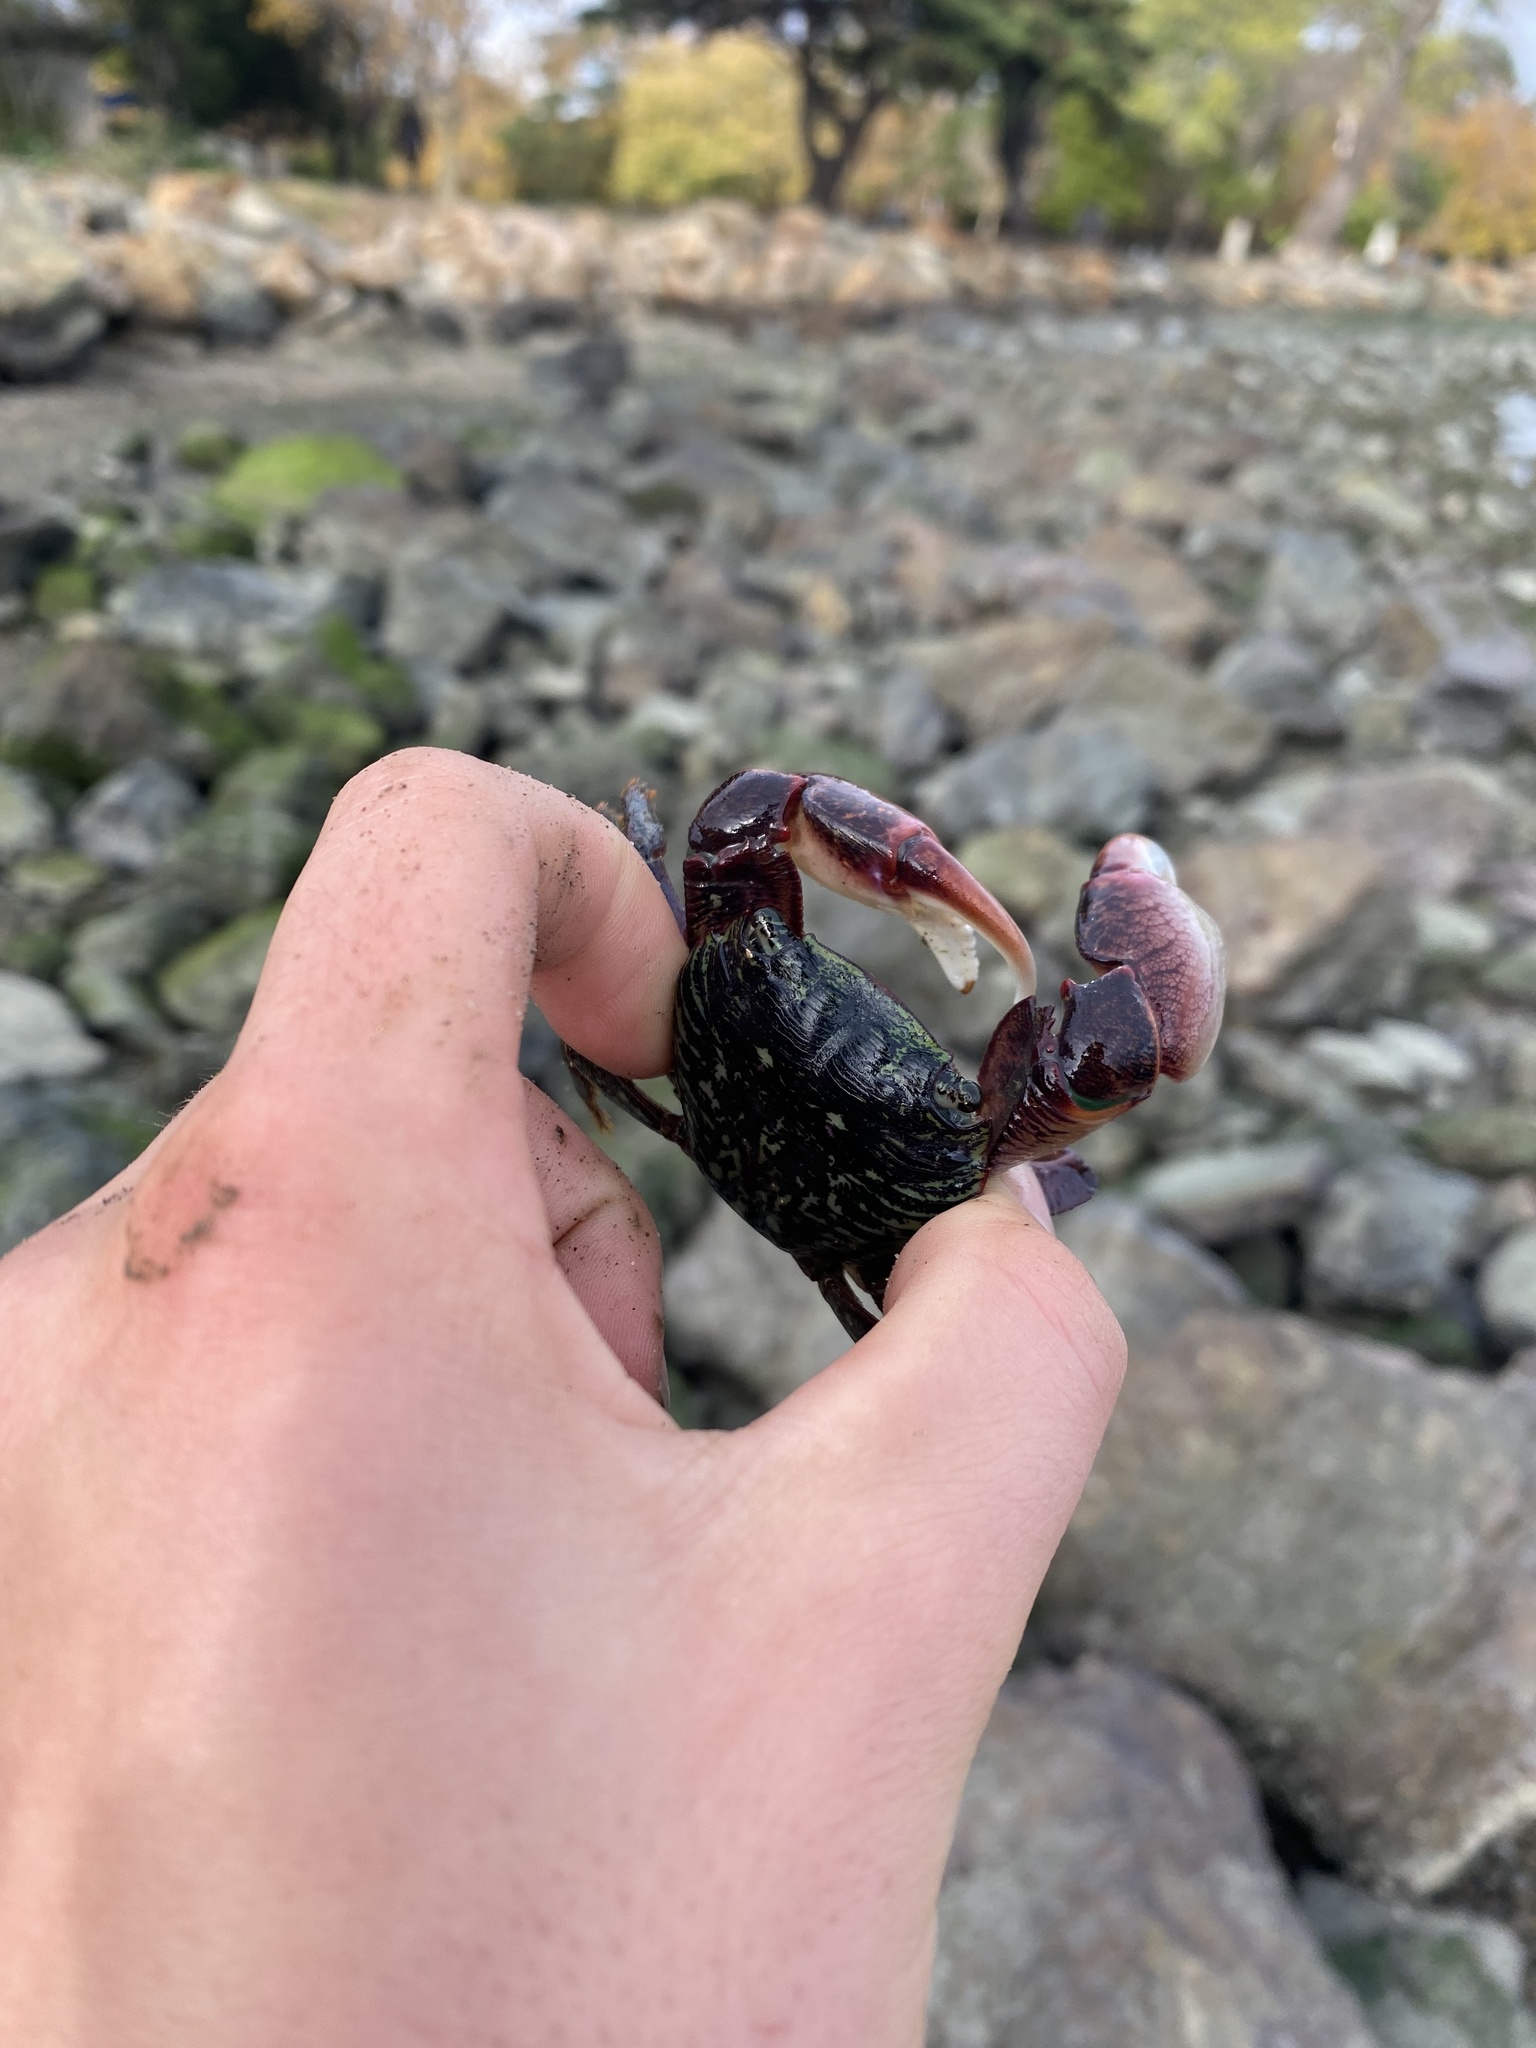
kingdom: Animalia
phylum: Arthropoda
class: Malacostraca
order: Decapoda
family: Grapsidae
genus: Pachygrapsus
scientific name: Pachygrapsus crassipes
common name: Striped shore crab
